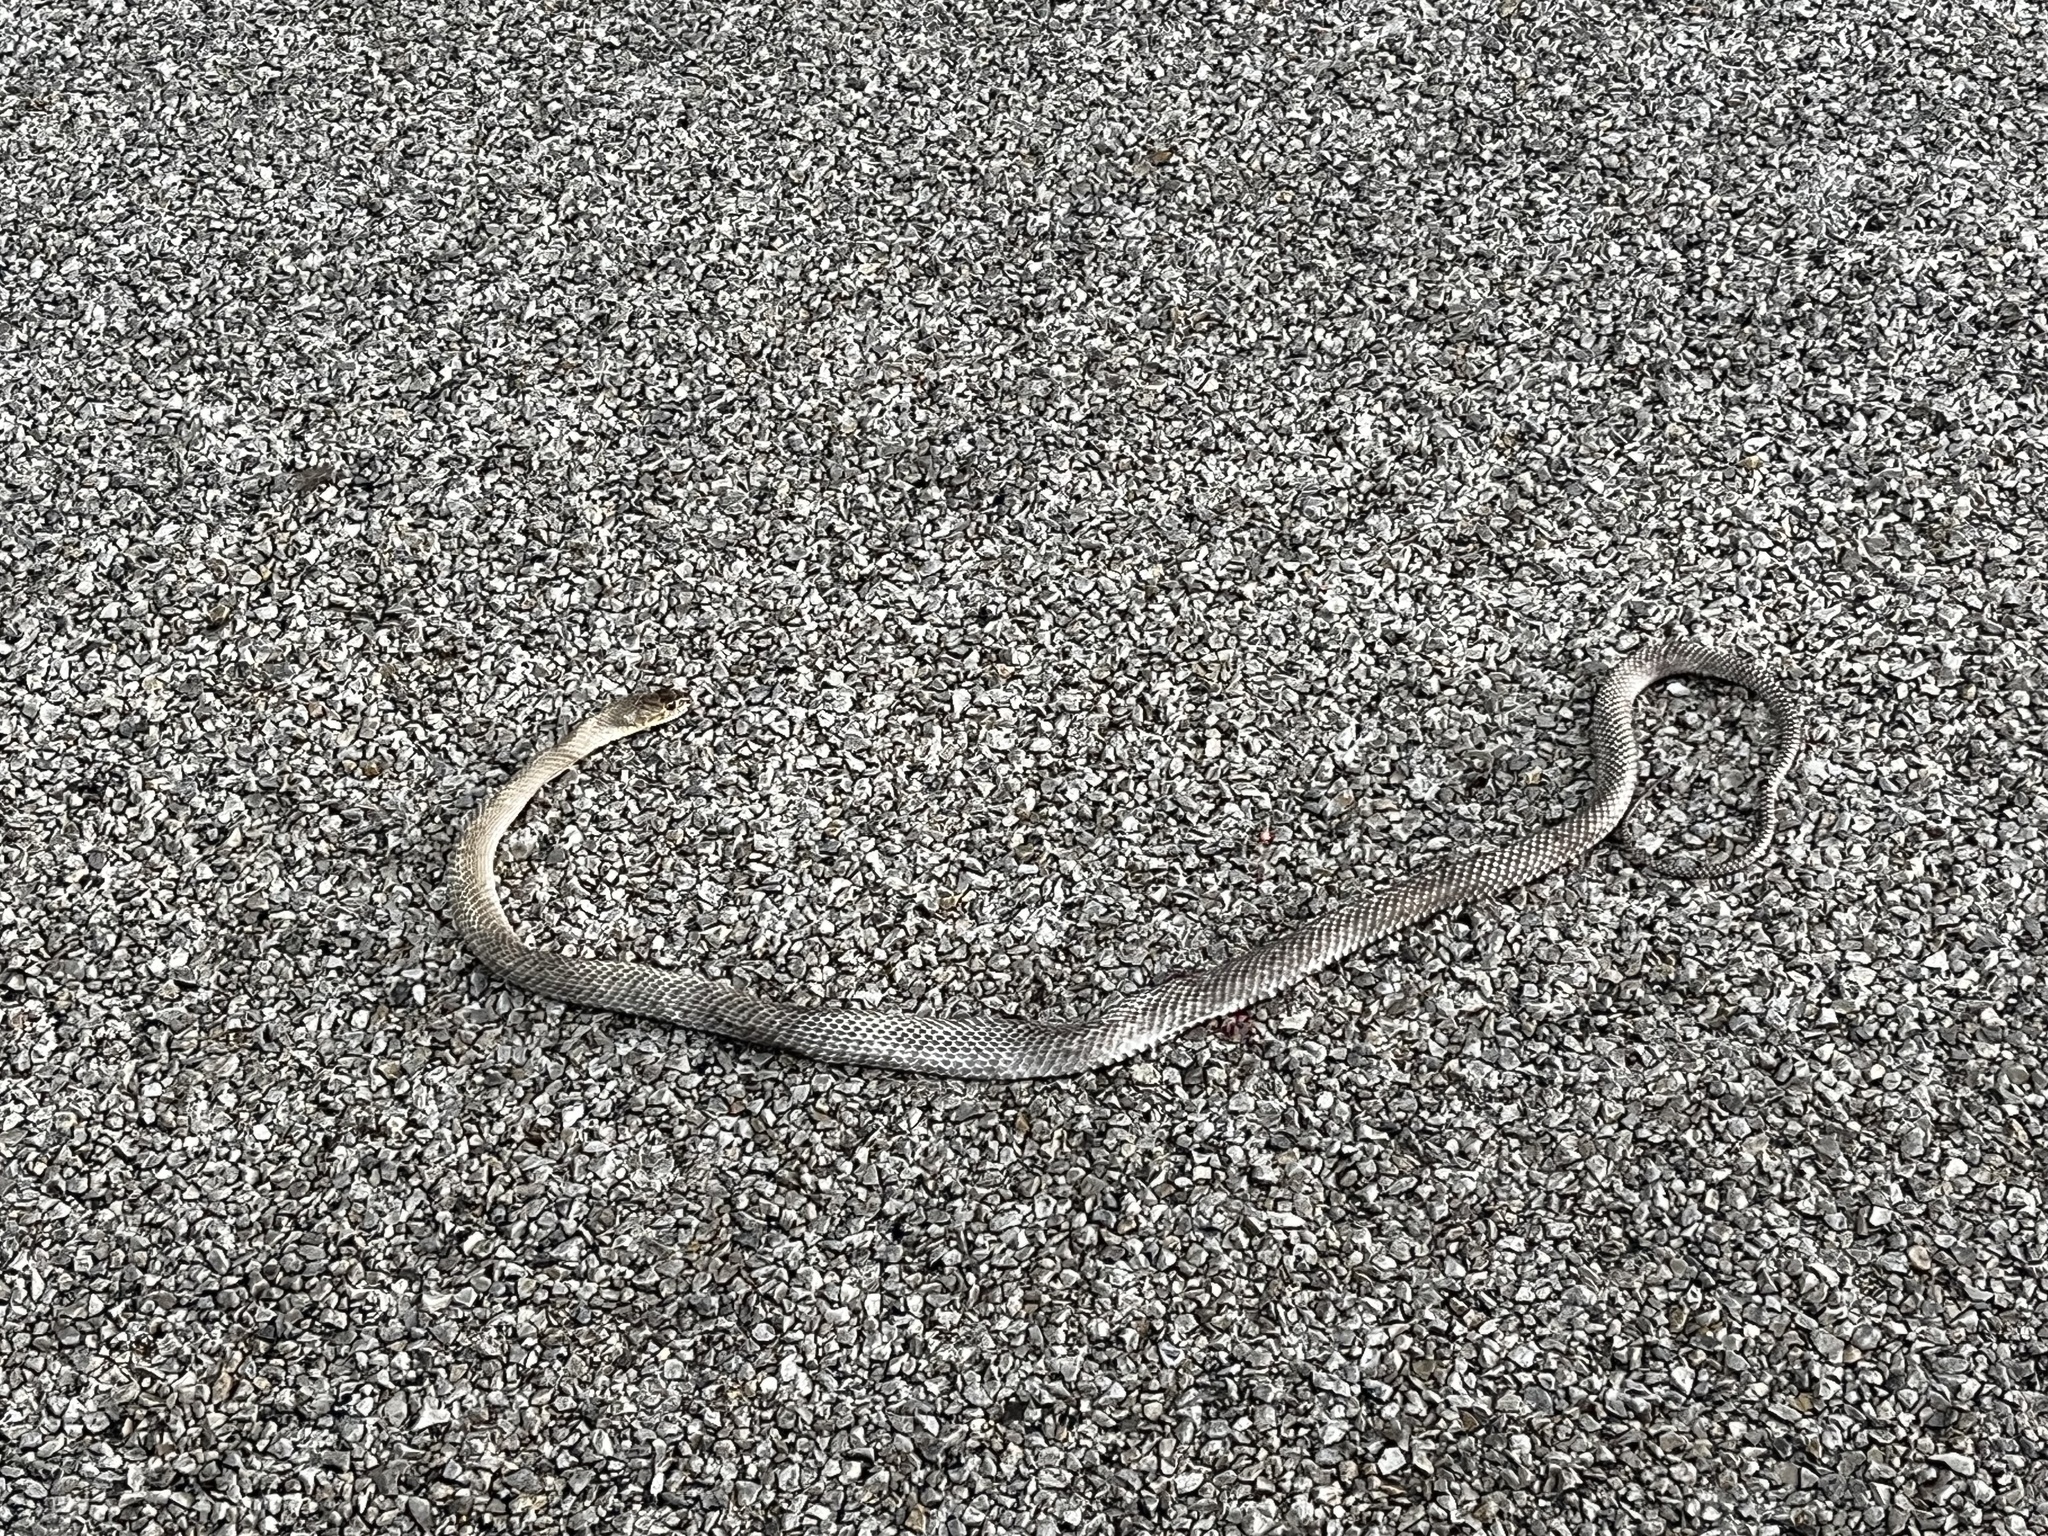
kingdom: Animalia
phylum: Chordata
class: Squamata
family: Colubridae
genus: Masticophis
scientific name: Masticophis flagellum
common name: Coachwhip
